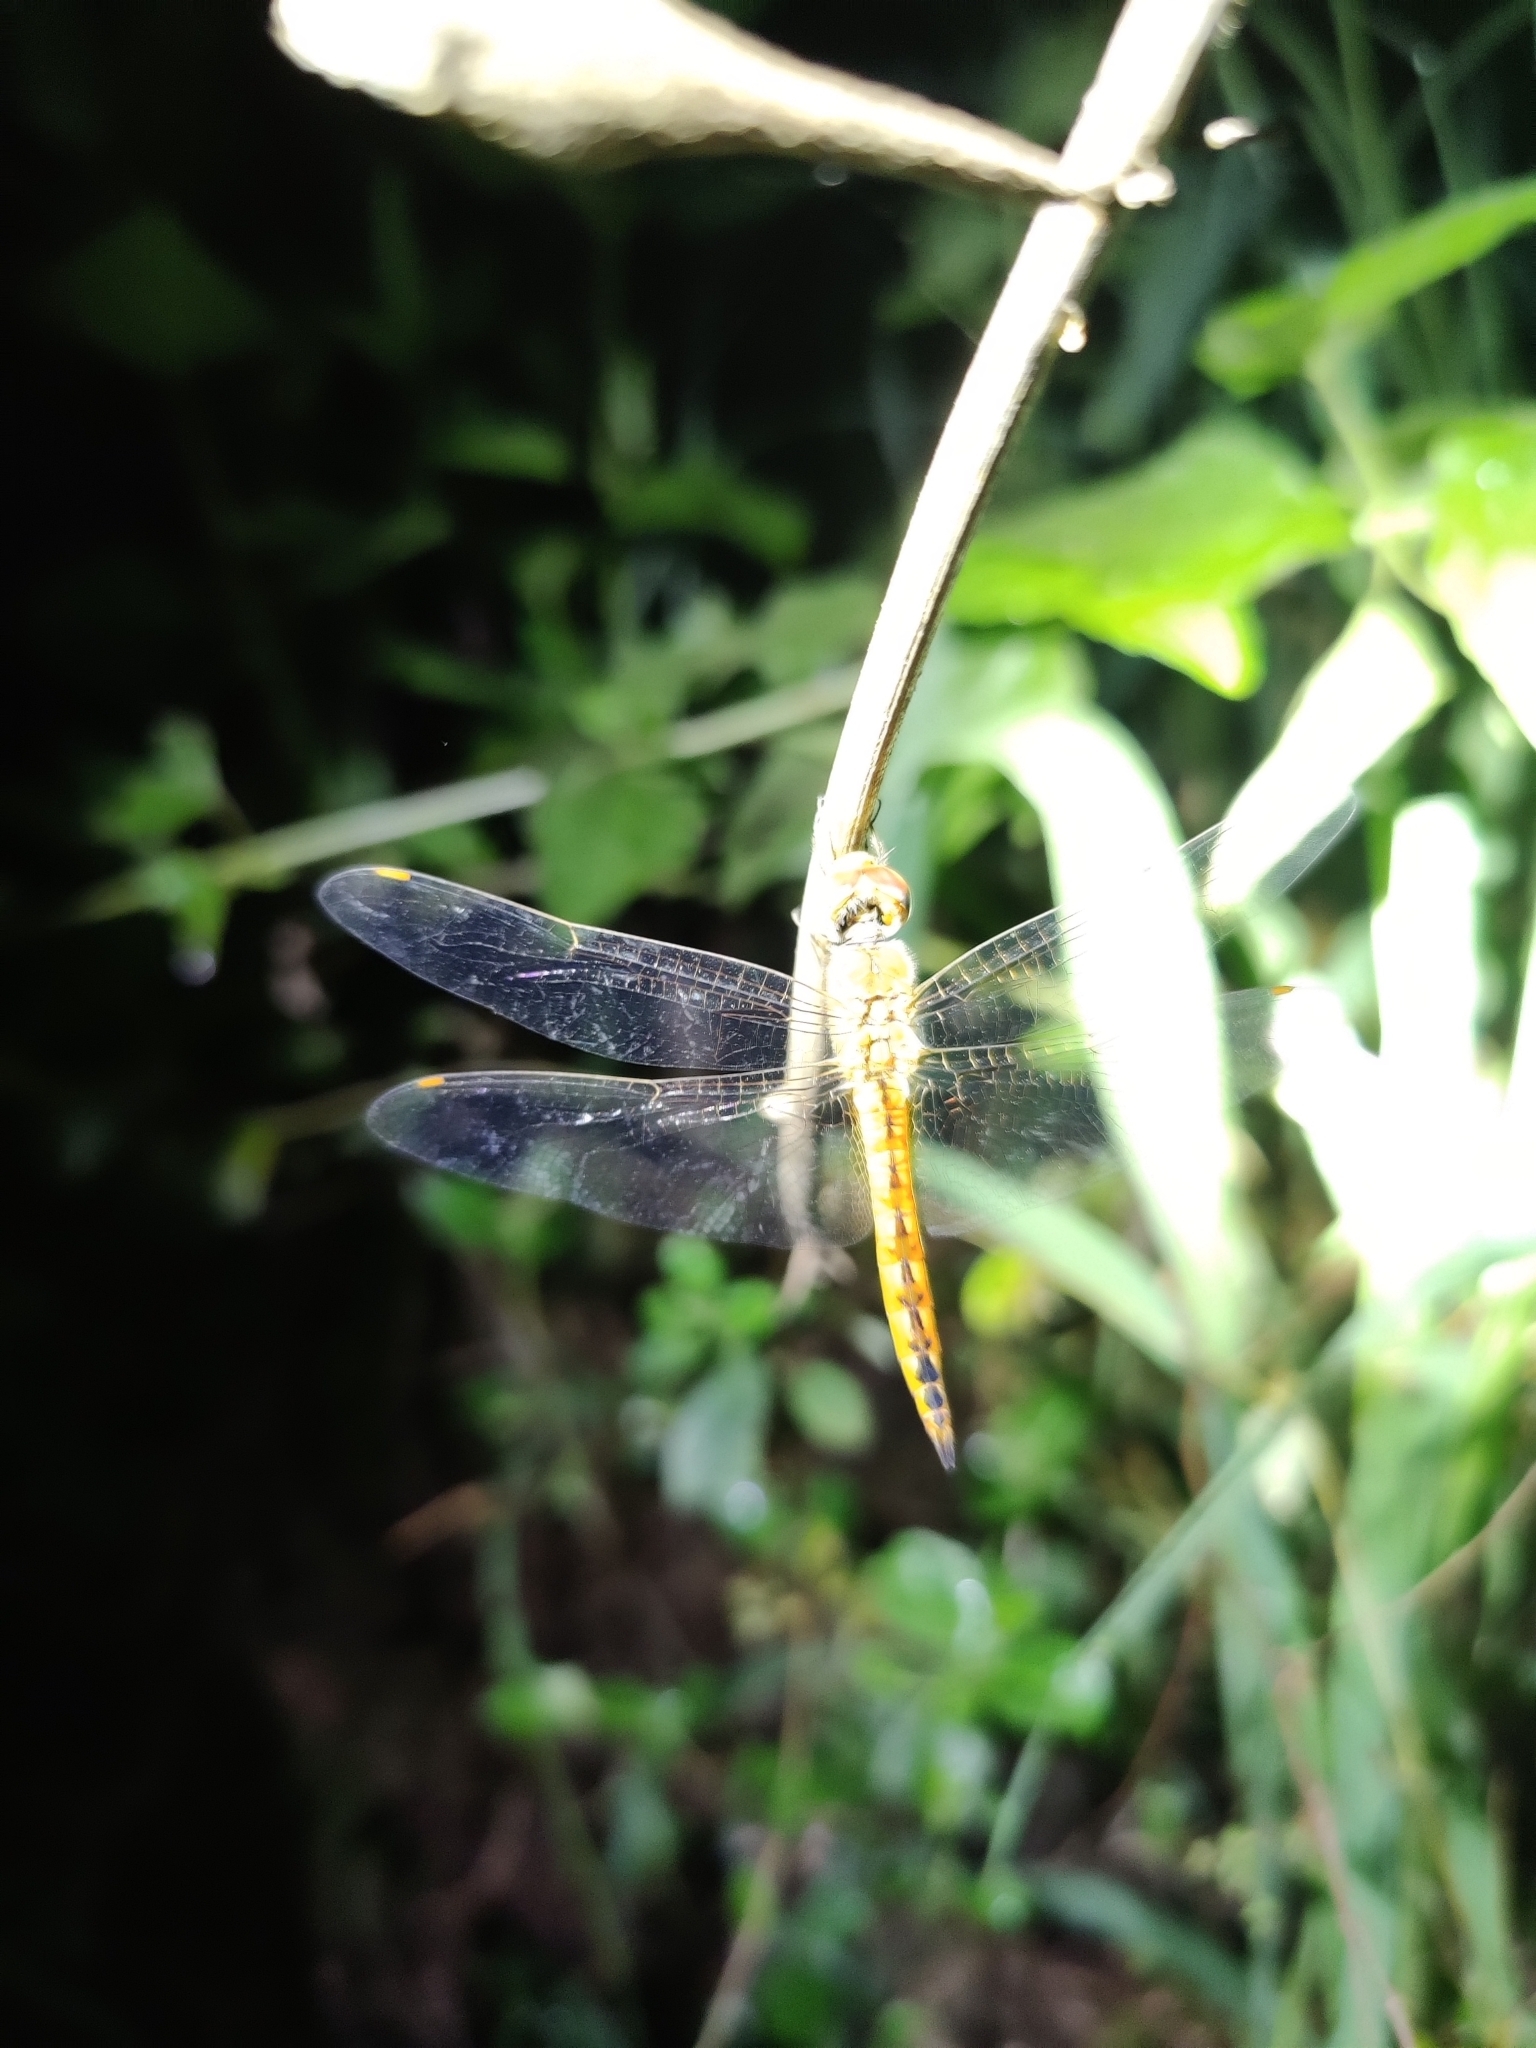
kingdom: Animalia
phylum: Arthropoda
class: Insecta
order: Odonata
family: Libellulidae
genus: Pantala
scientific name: Pantala flavescens
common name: Wandering glider
